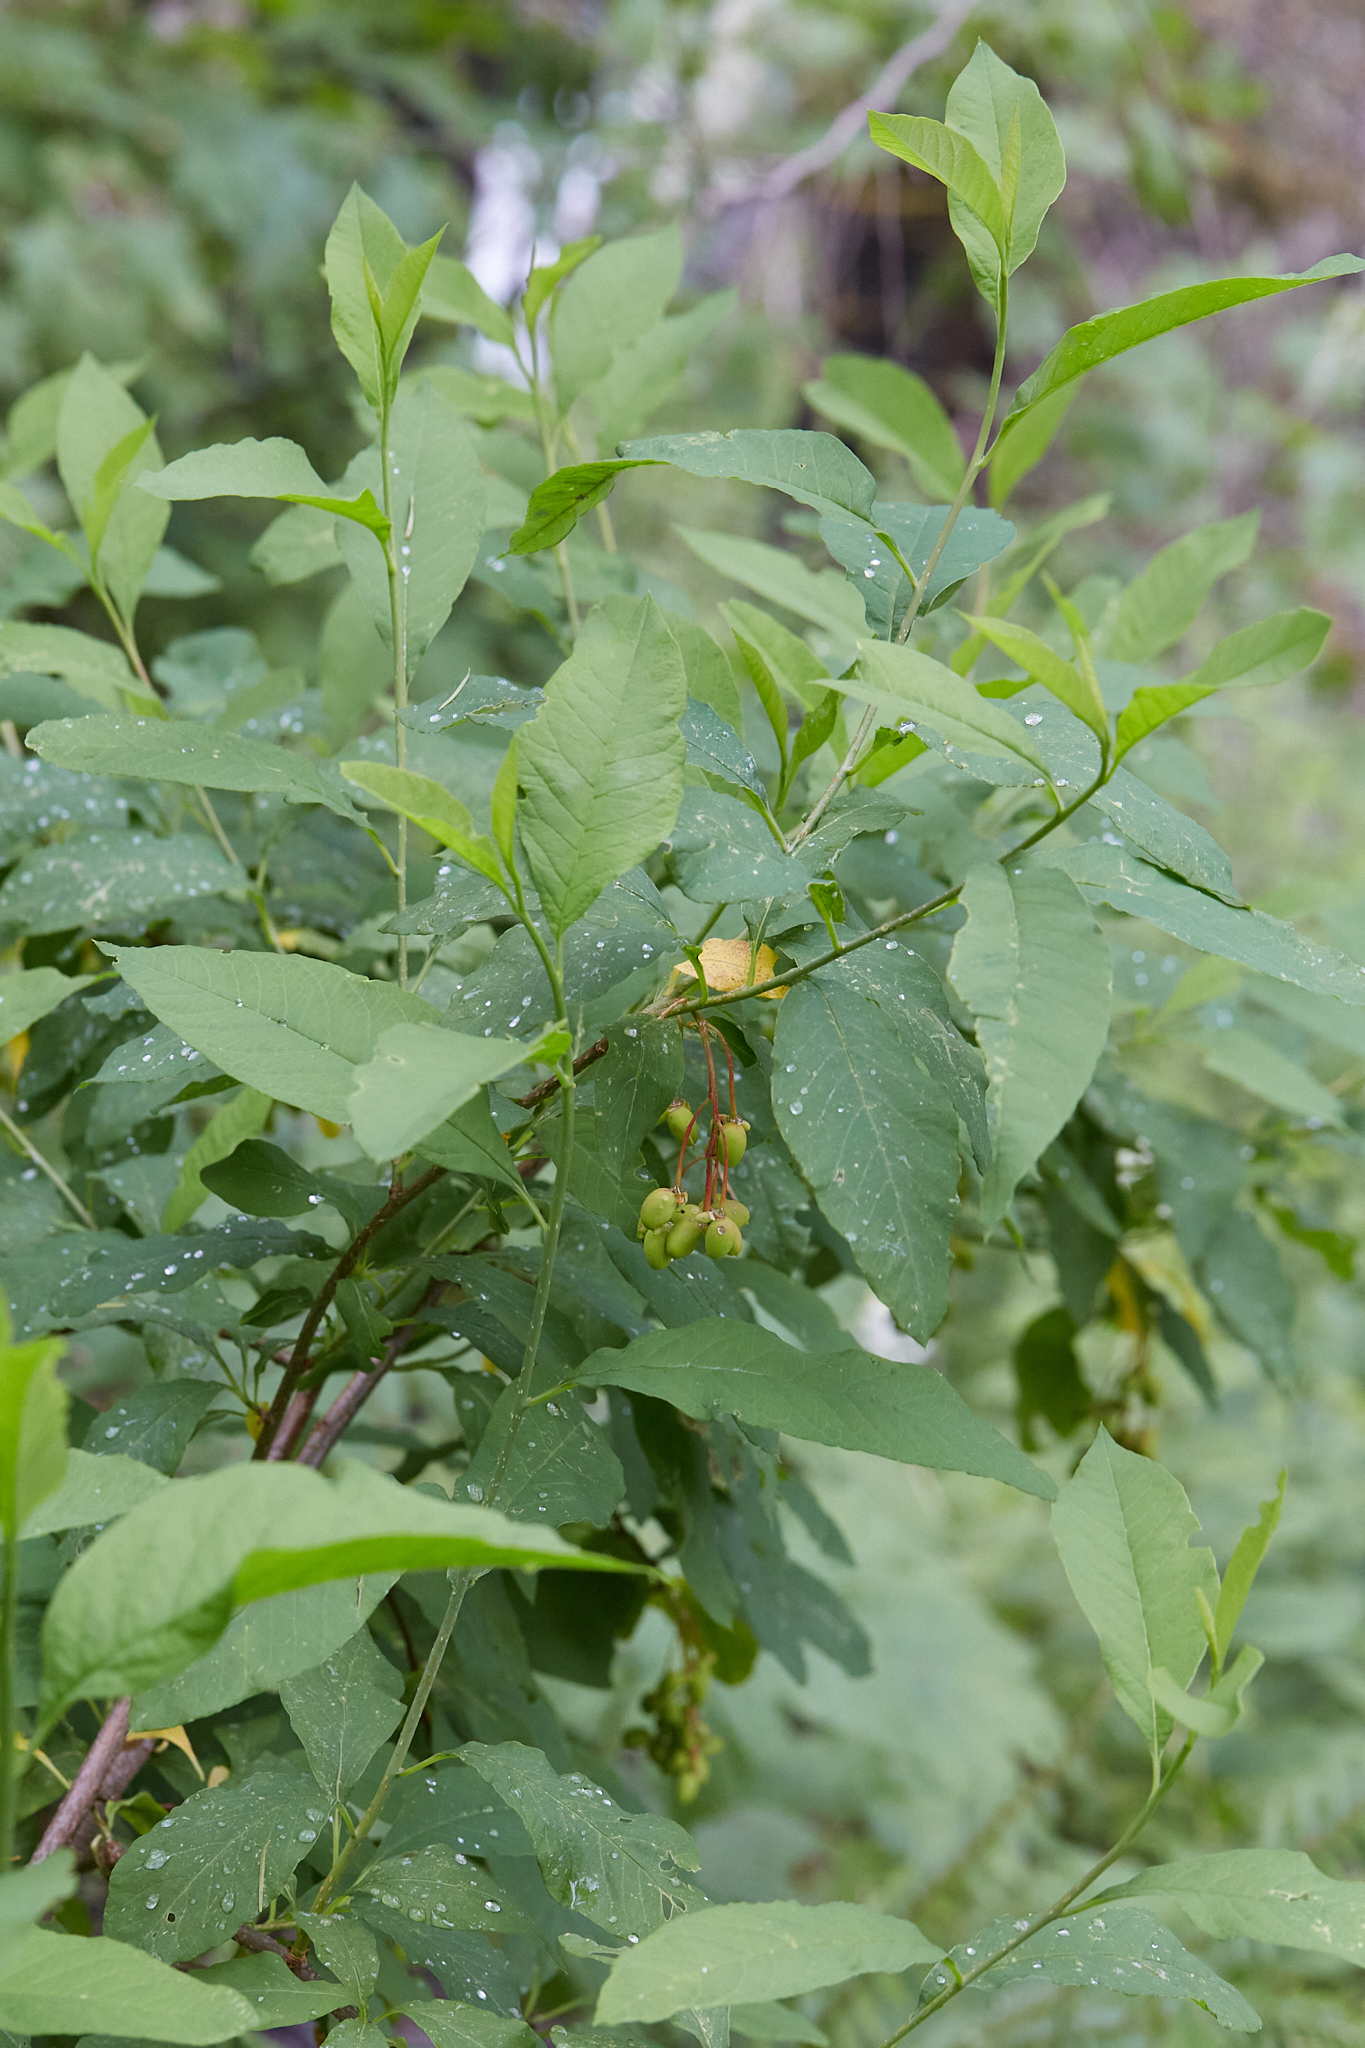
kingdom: Plantae
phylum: Tracheophyta
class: Magnoliopsida
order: Rosales
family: Rosaceae
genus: Oemleria
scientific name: Oemleria cerasiformis
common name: Osoberry
